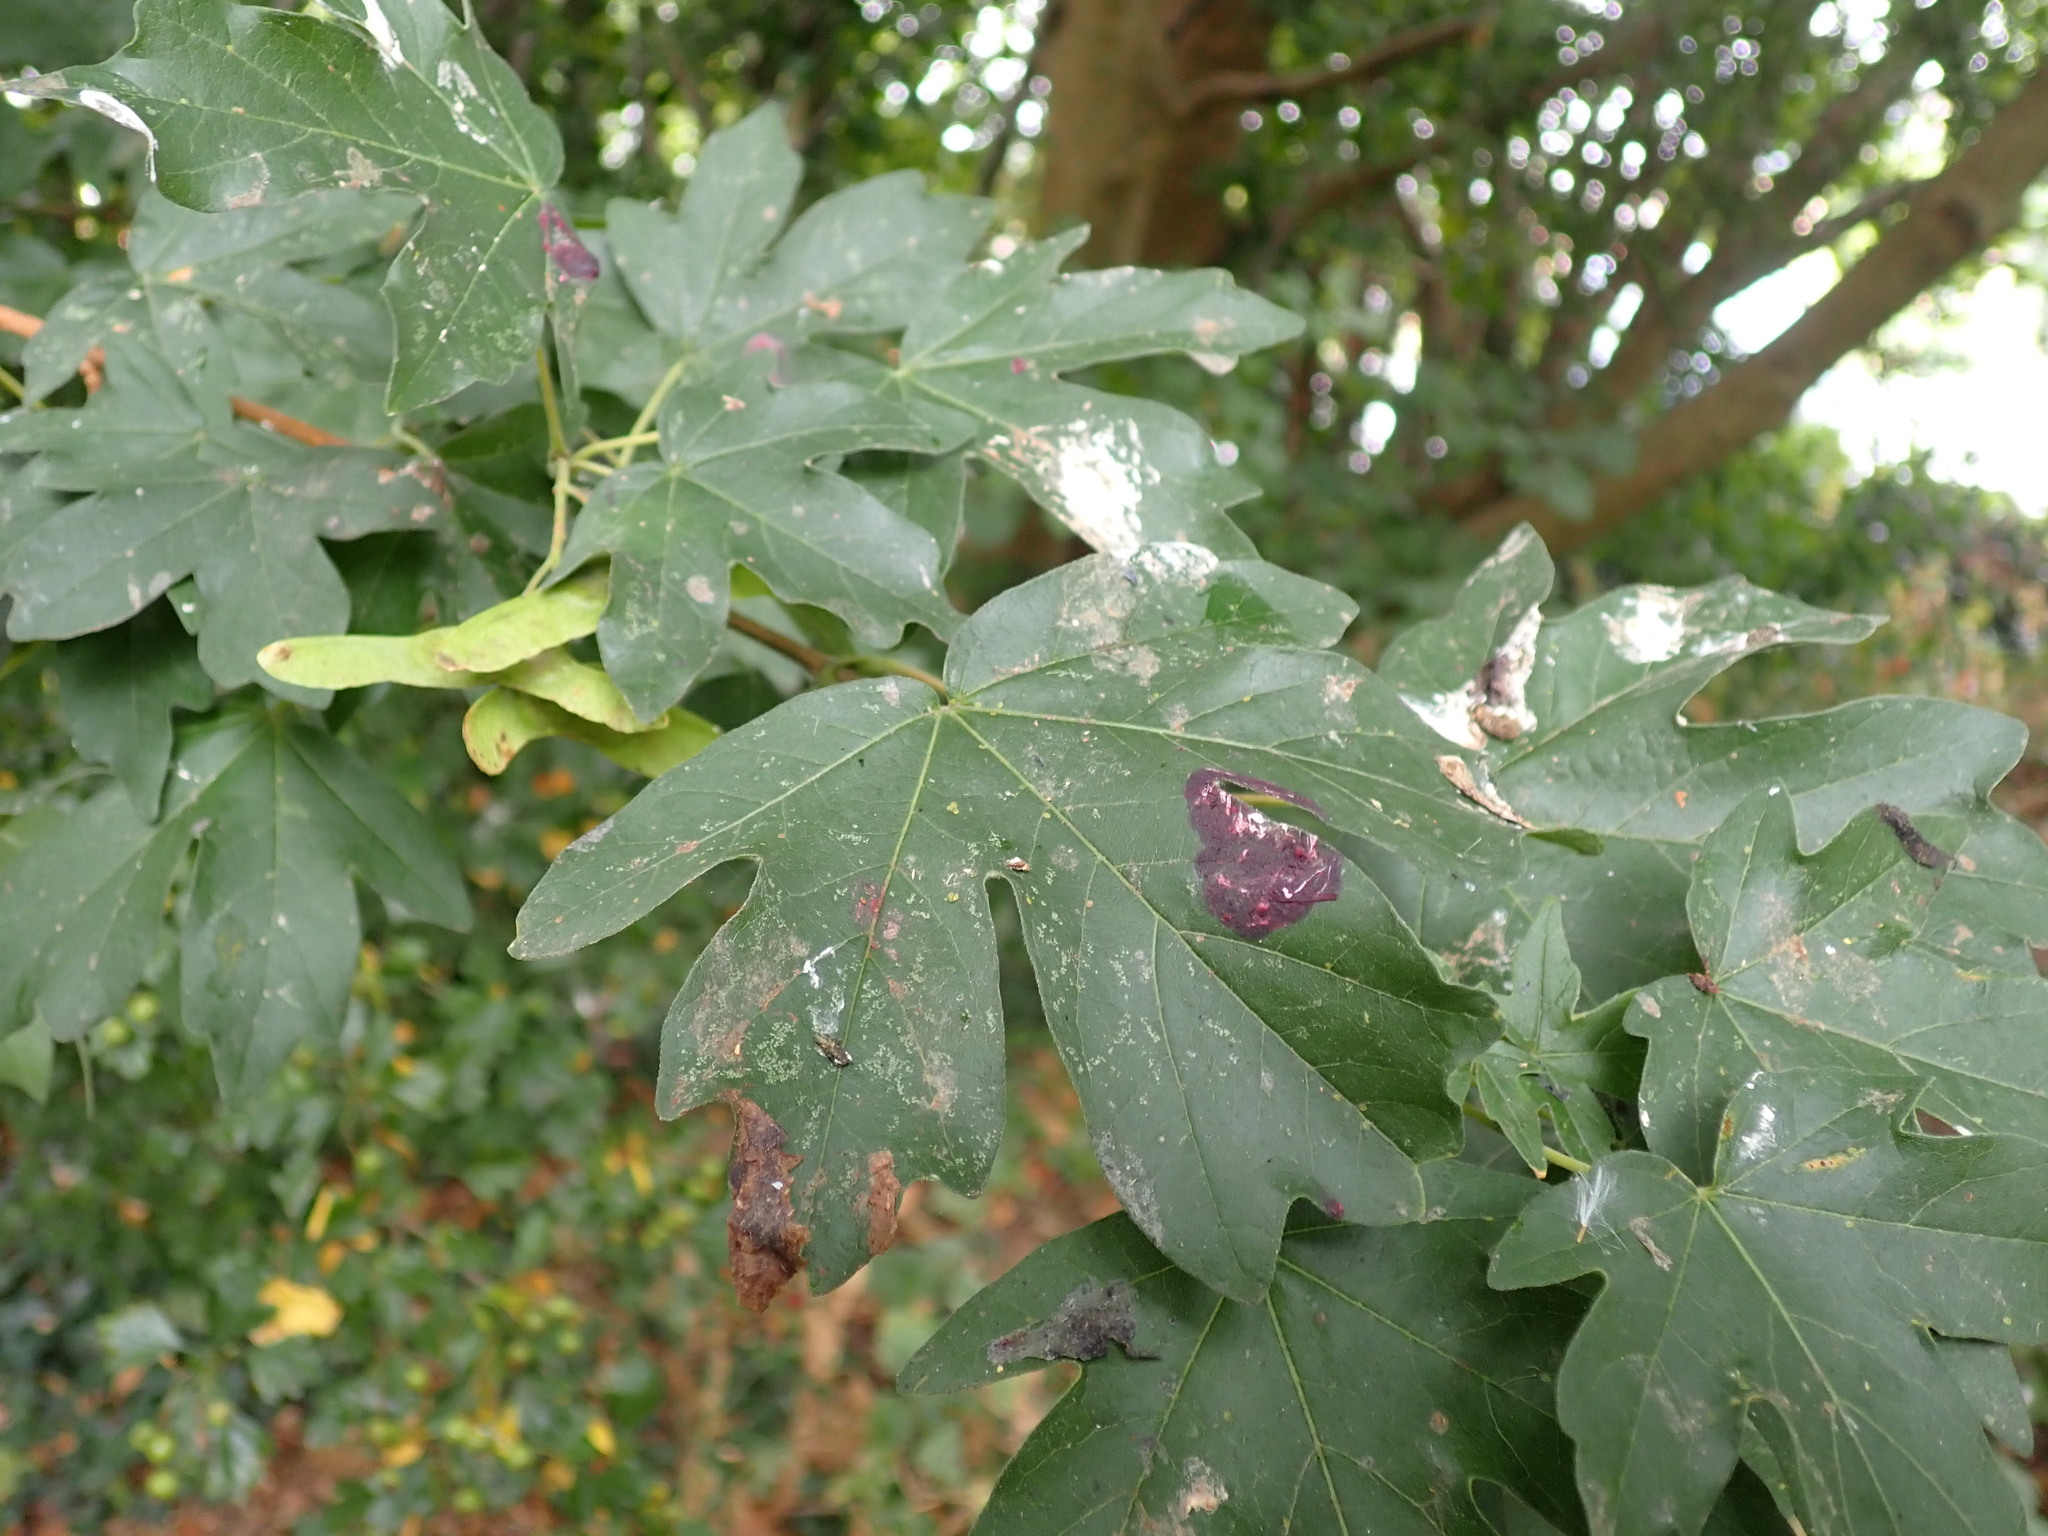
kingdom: Plantae
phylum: Tracheophyta
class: Magnoliopsida
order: Sapindales
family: Sapindaceae
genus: Acer
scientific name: Acer campestre
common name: Field maple
